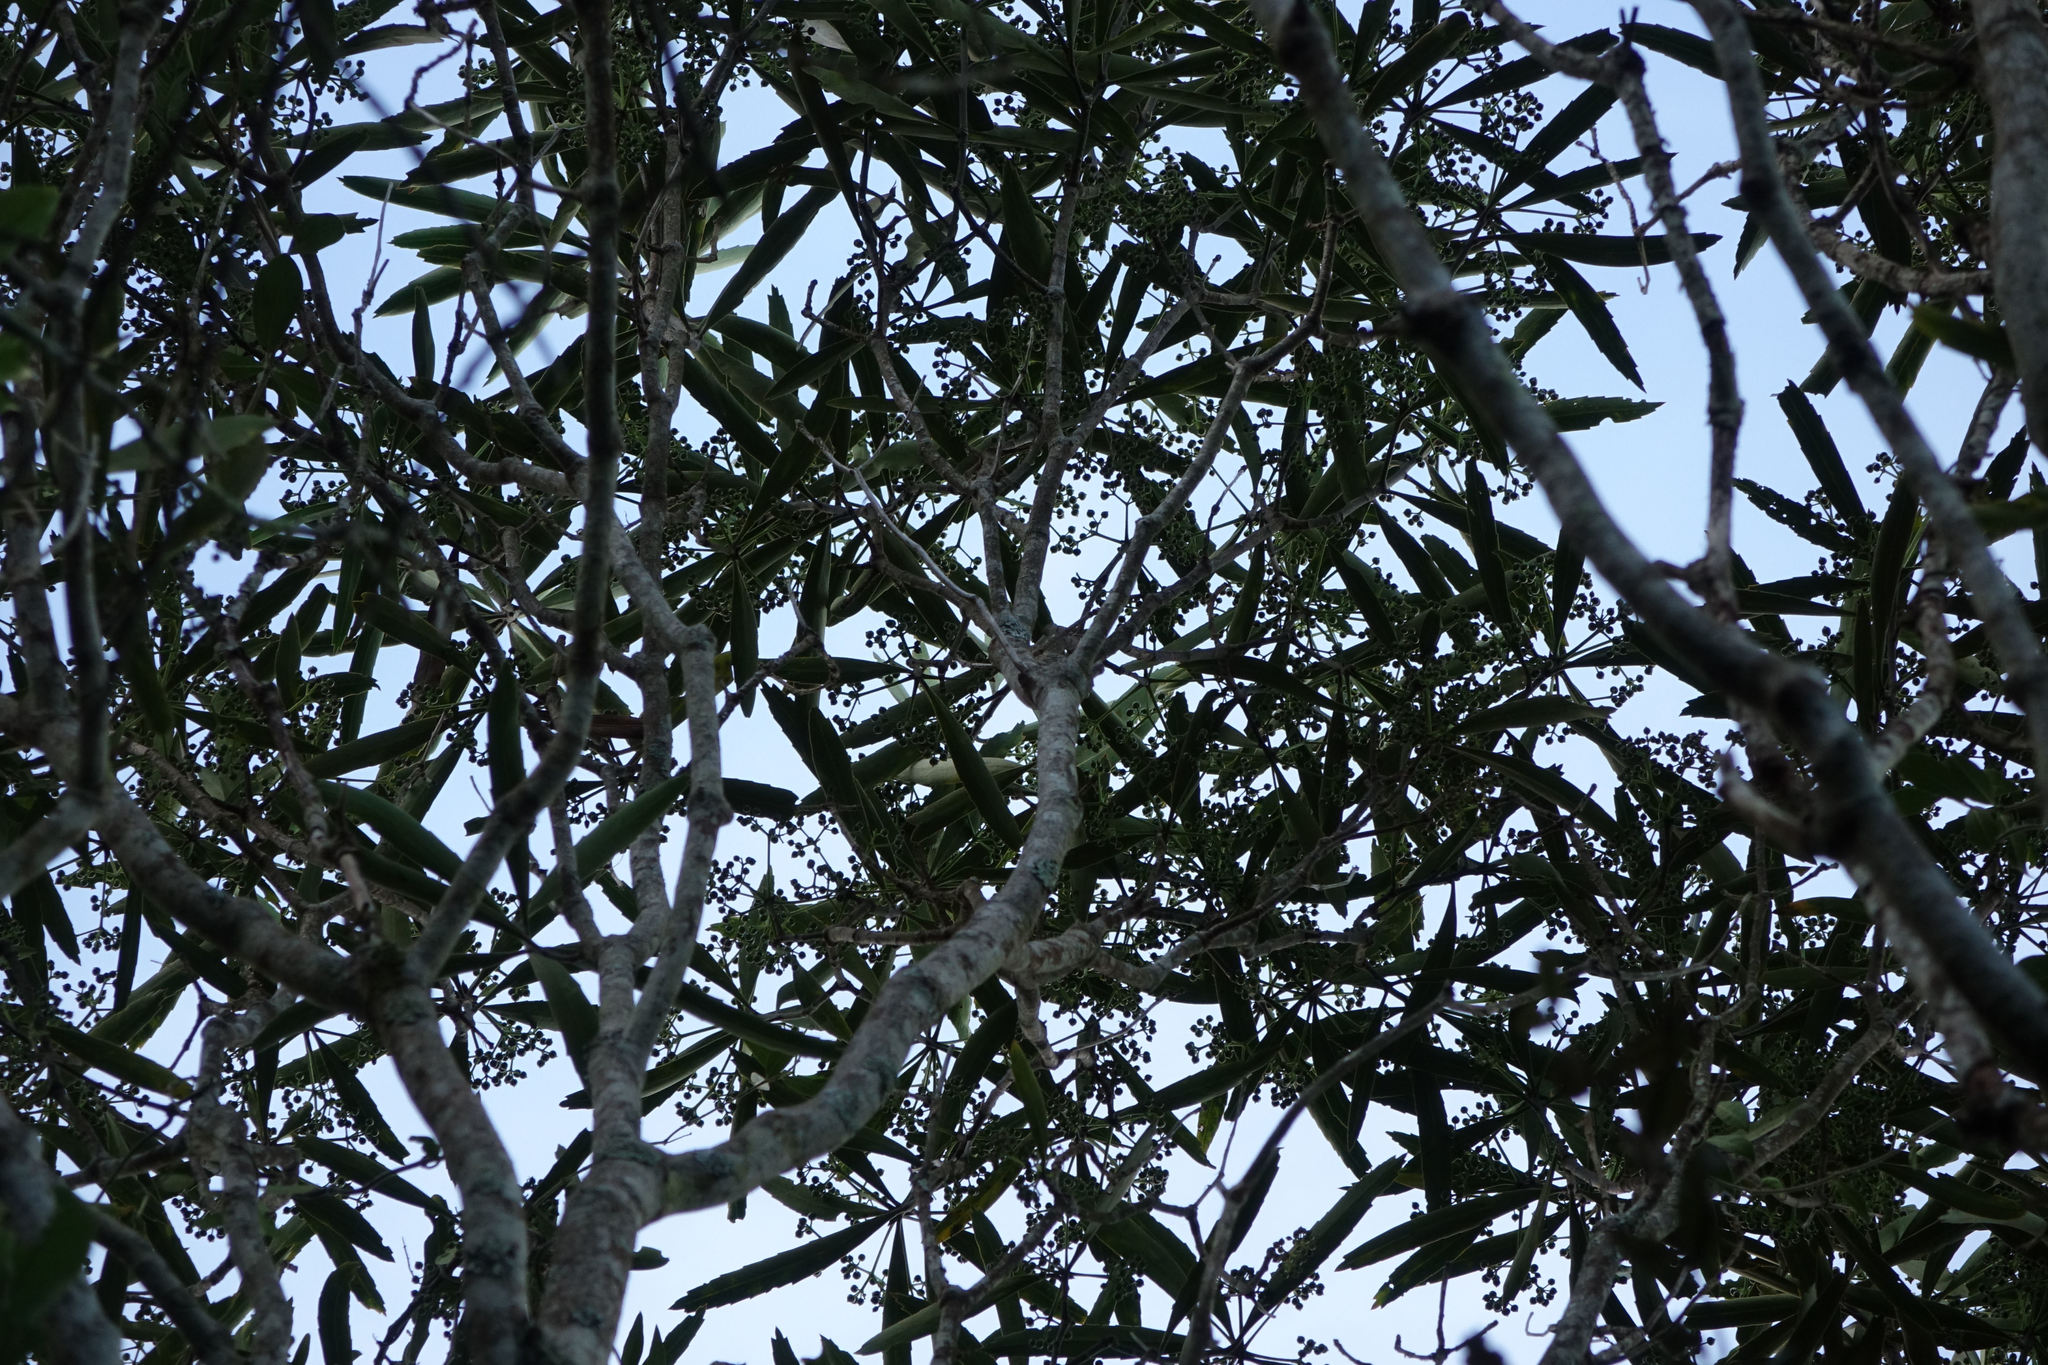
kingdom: Plantae
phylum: Tracheophyta
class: Magnoliopsida
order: Apiales
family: Araliaceae
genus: Pseudopanax
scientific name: Pseudopanax crassifolius
